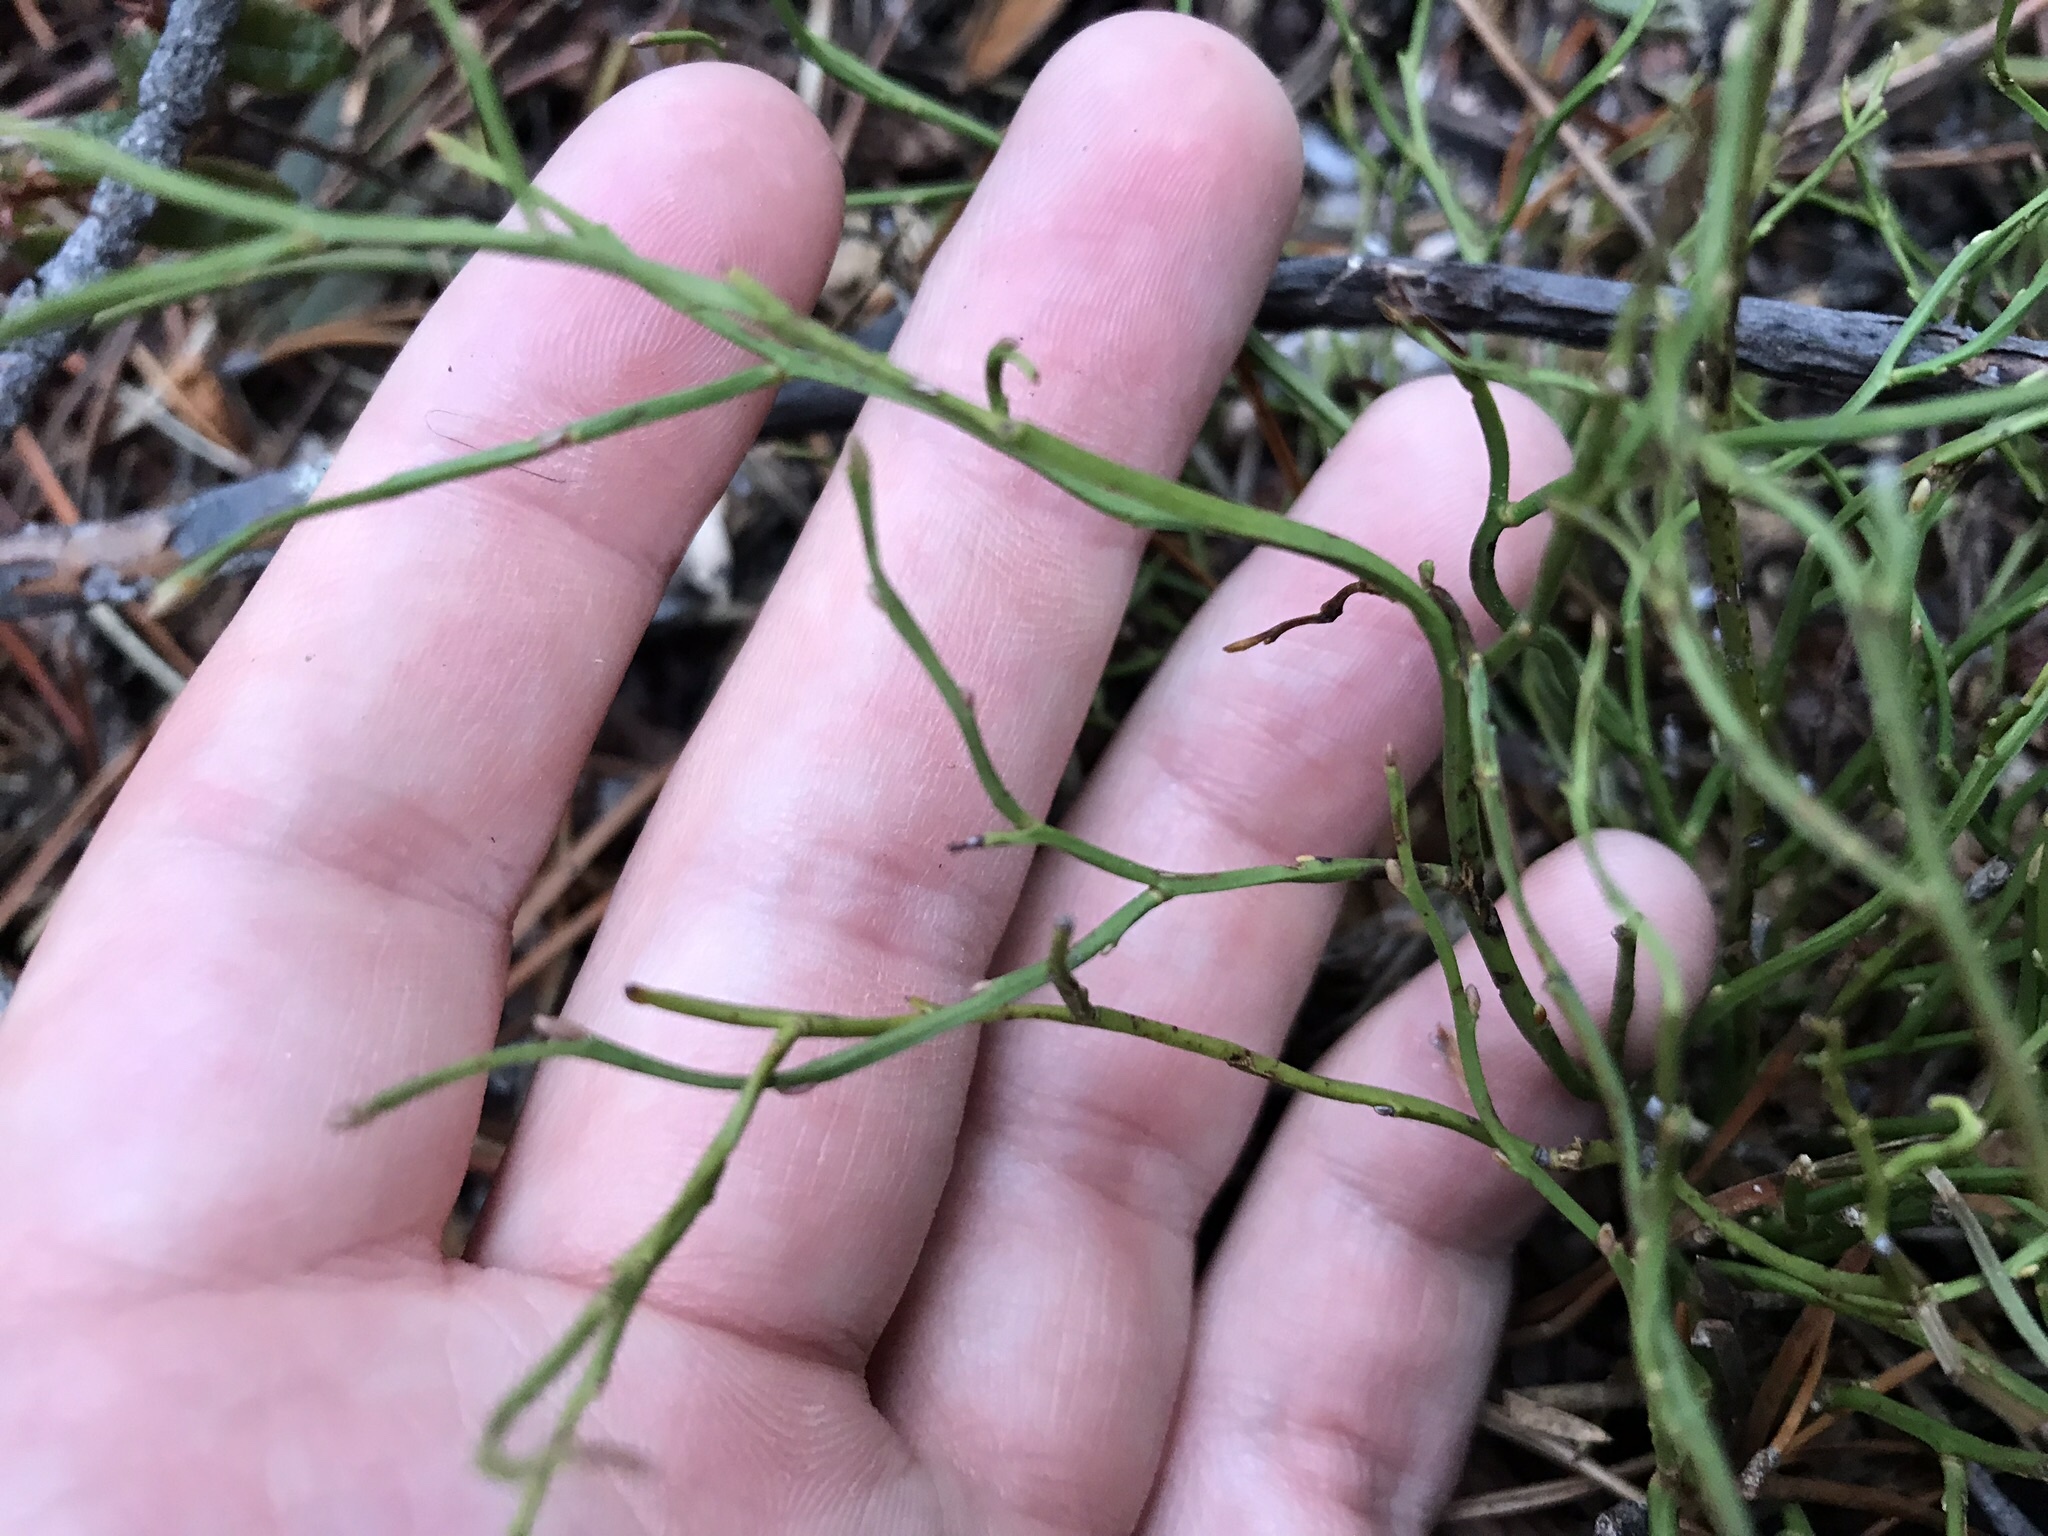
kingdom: Plantae
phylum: Tracheophyta
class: Magnoliopsida
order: Ericales
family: Ericaceae
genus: Vaccinium
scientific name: Vaccinium scoparium
